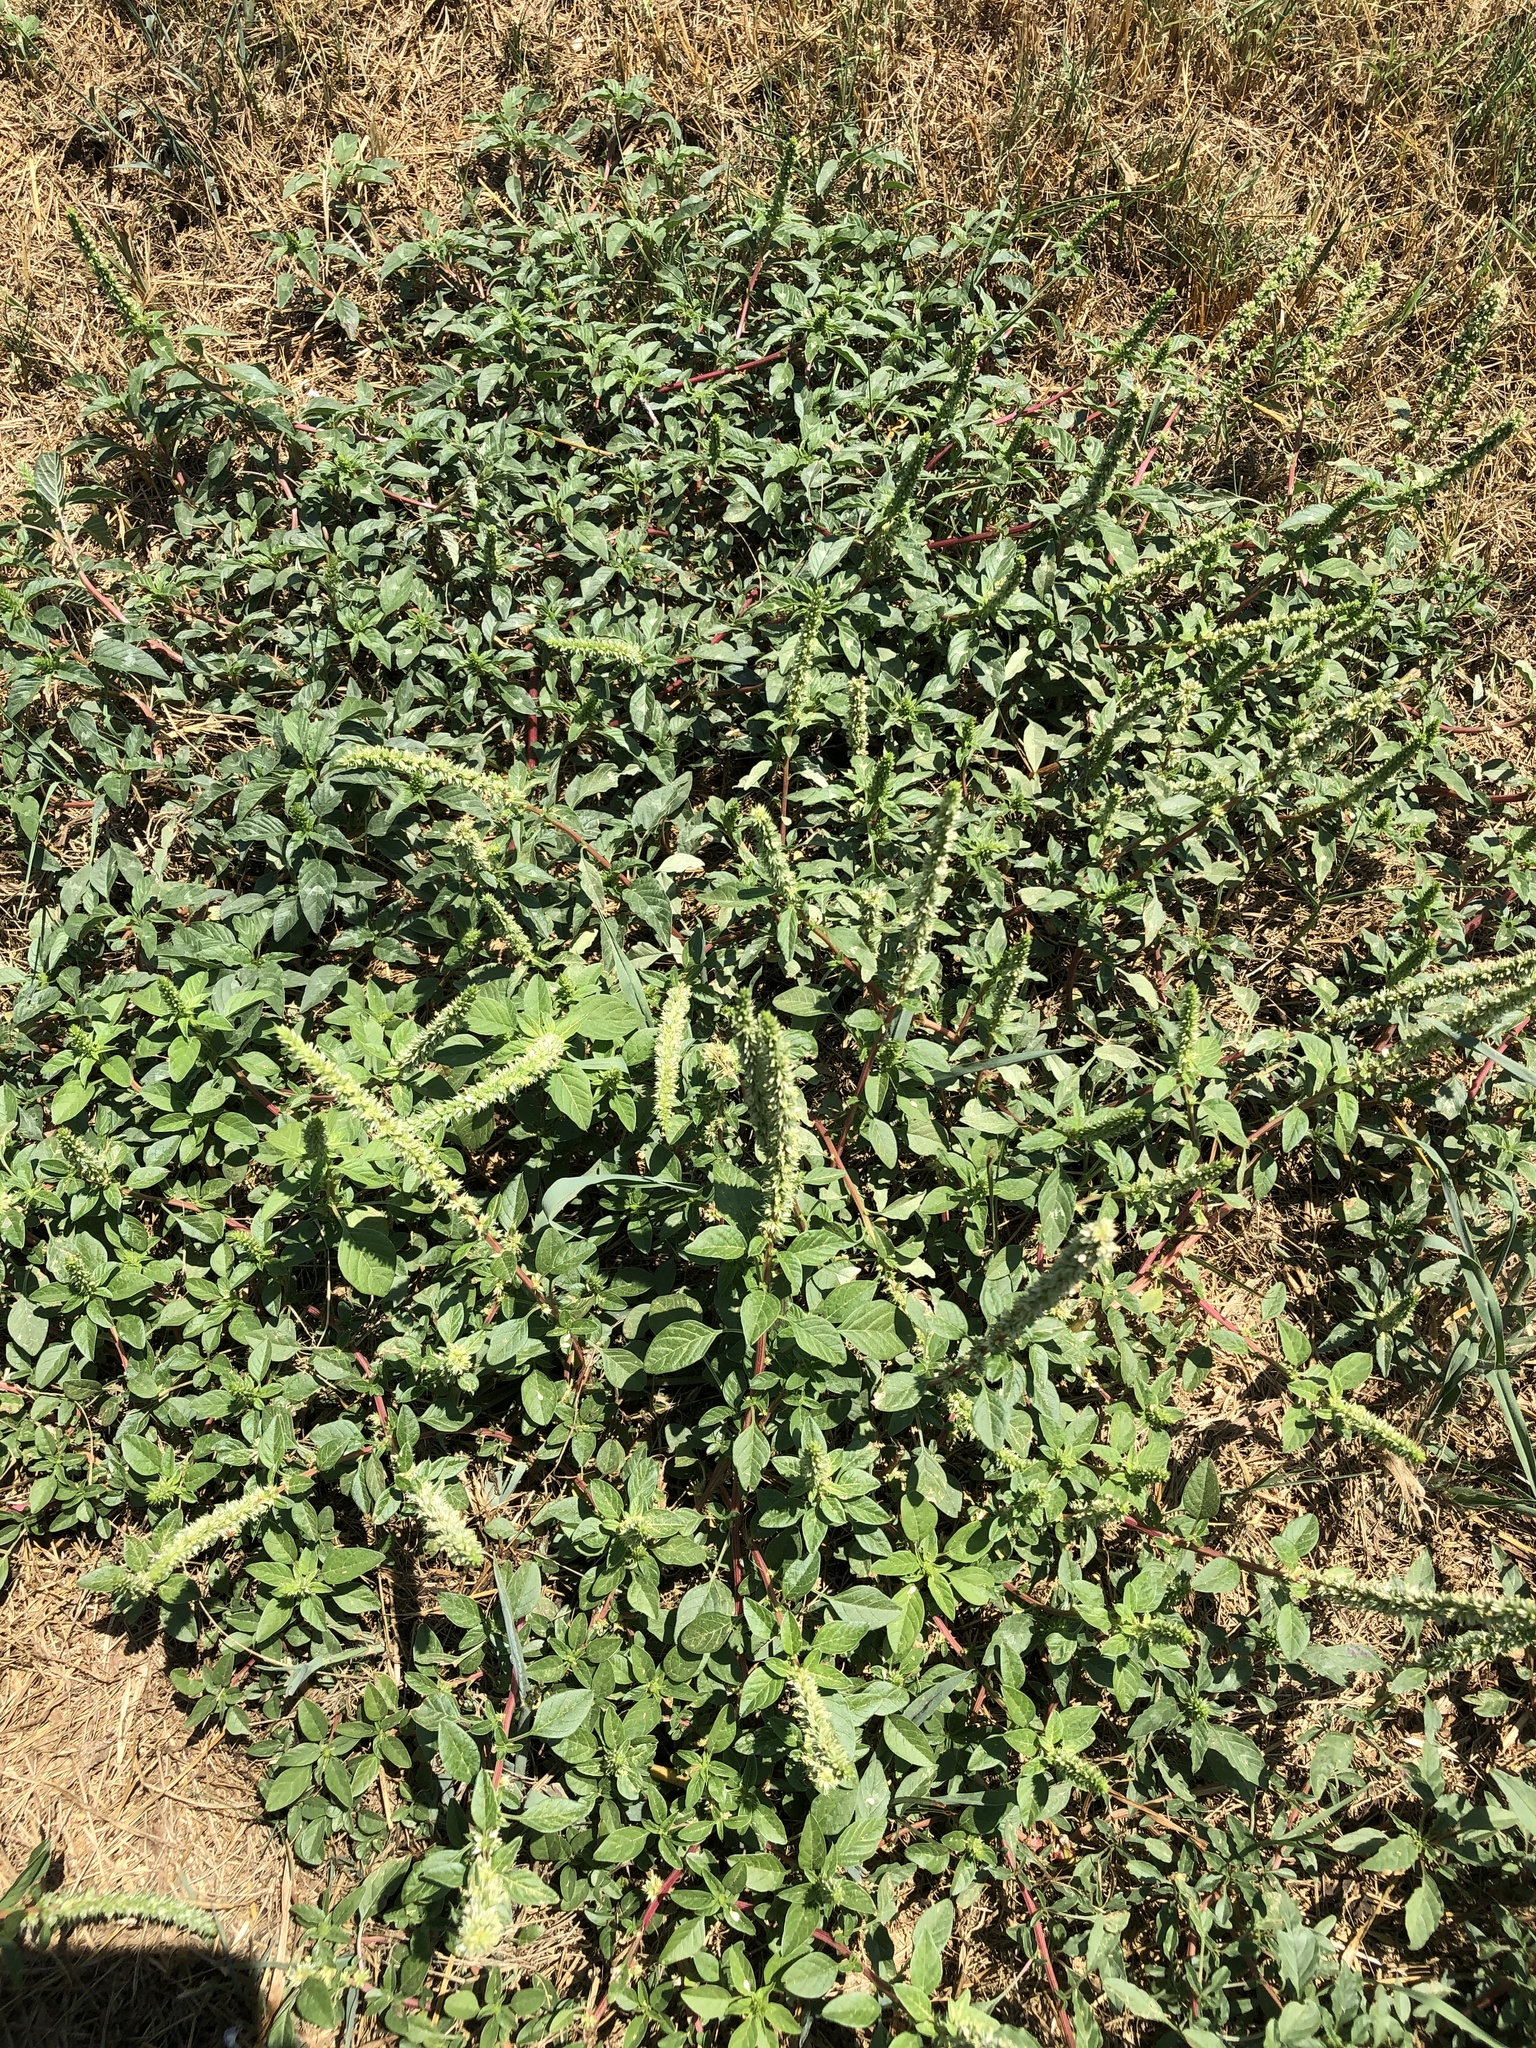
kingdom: Plantae
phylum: Tracheophyta
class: Magnoliopsida
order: Caryophyllales
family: Amaranthaceae
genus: Amaranthus
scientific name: Amaranthus palmeri
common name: Dioecious amaranth
